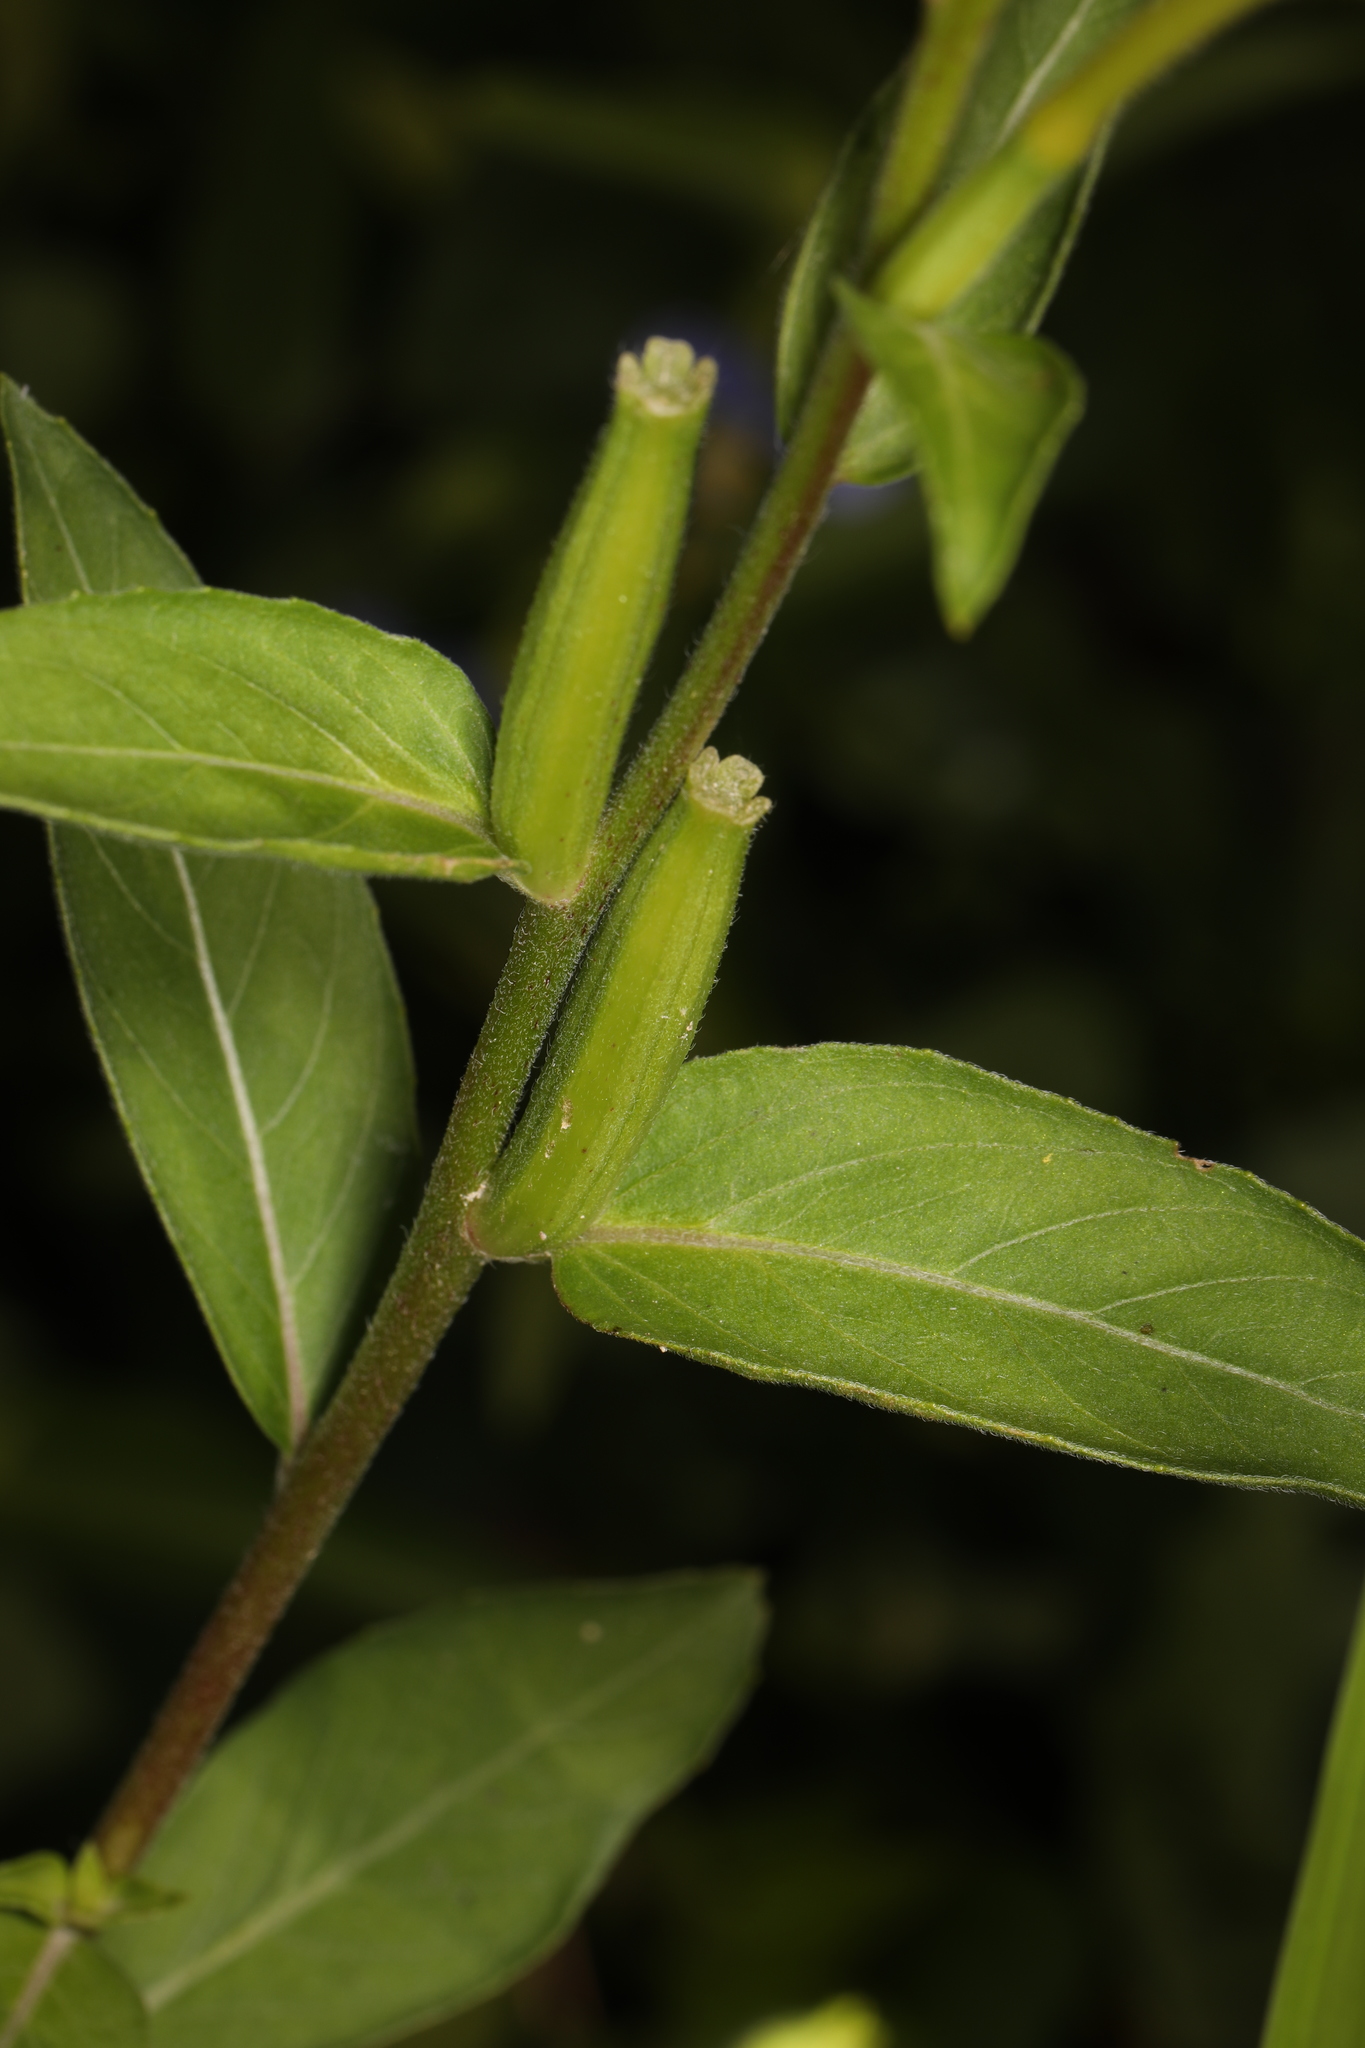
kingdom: Plantae
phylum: Tracheophyta
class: Magnoliopsida
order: Myrtales
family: Onagraceae
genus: Oenothera
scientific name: Oenothera biennis
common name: Common evening-primrose
